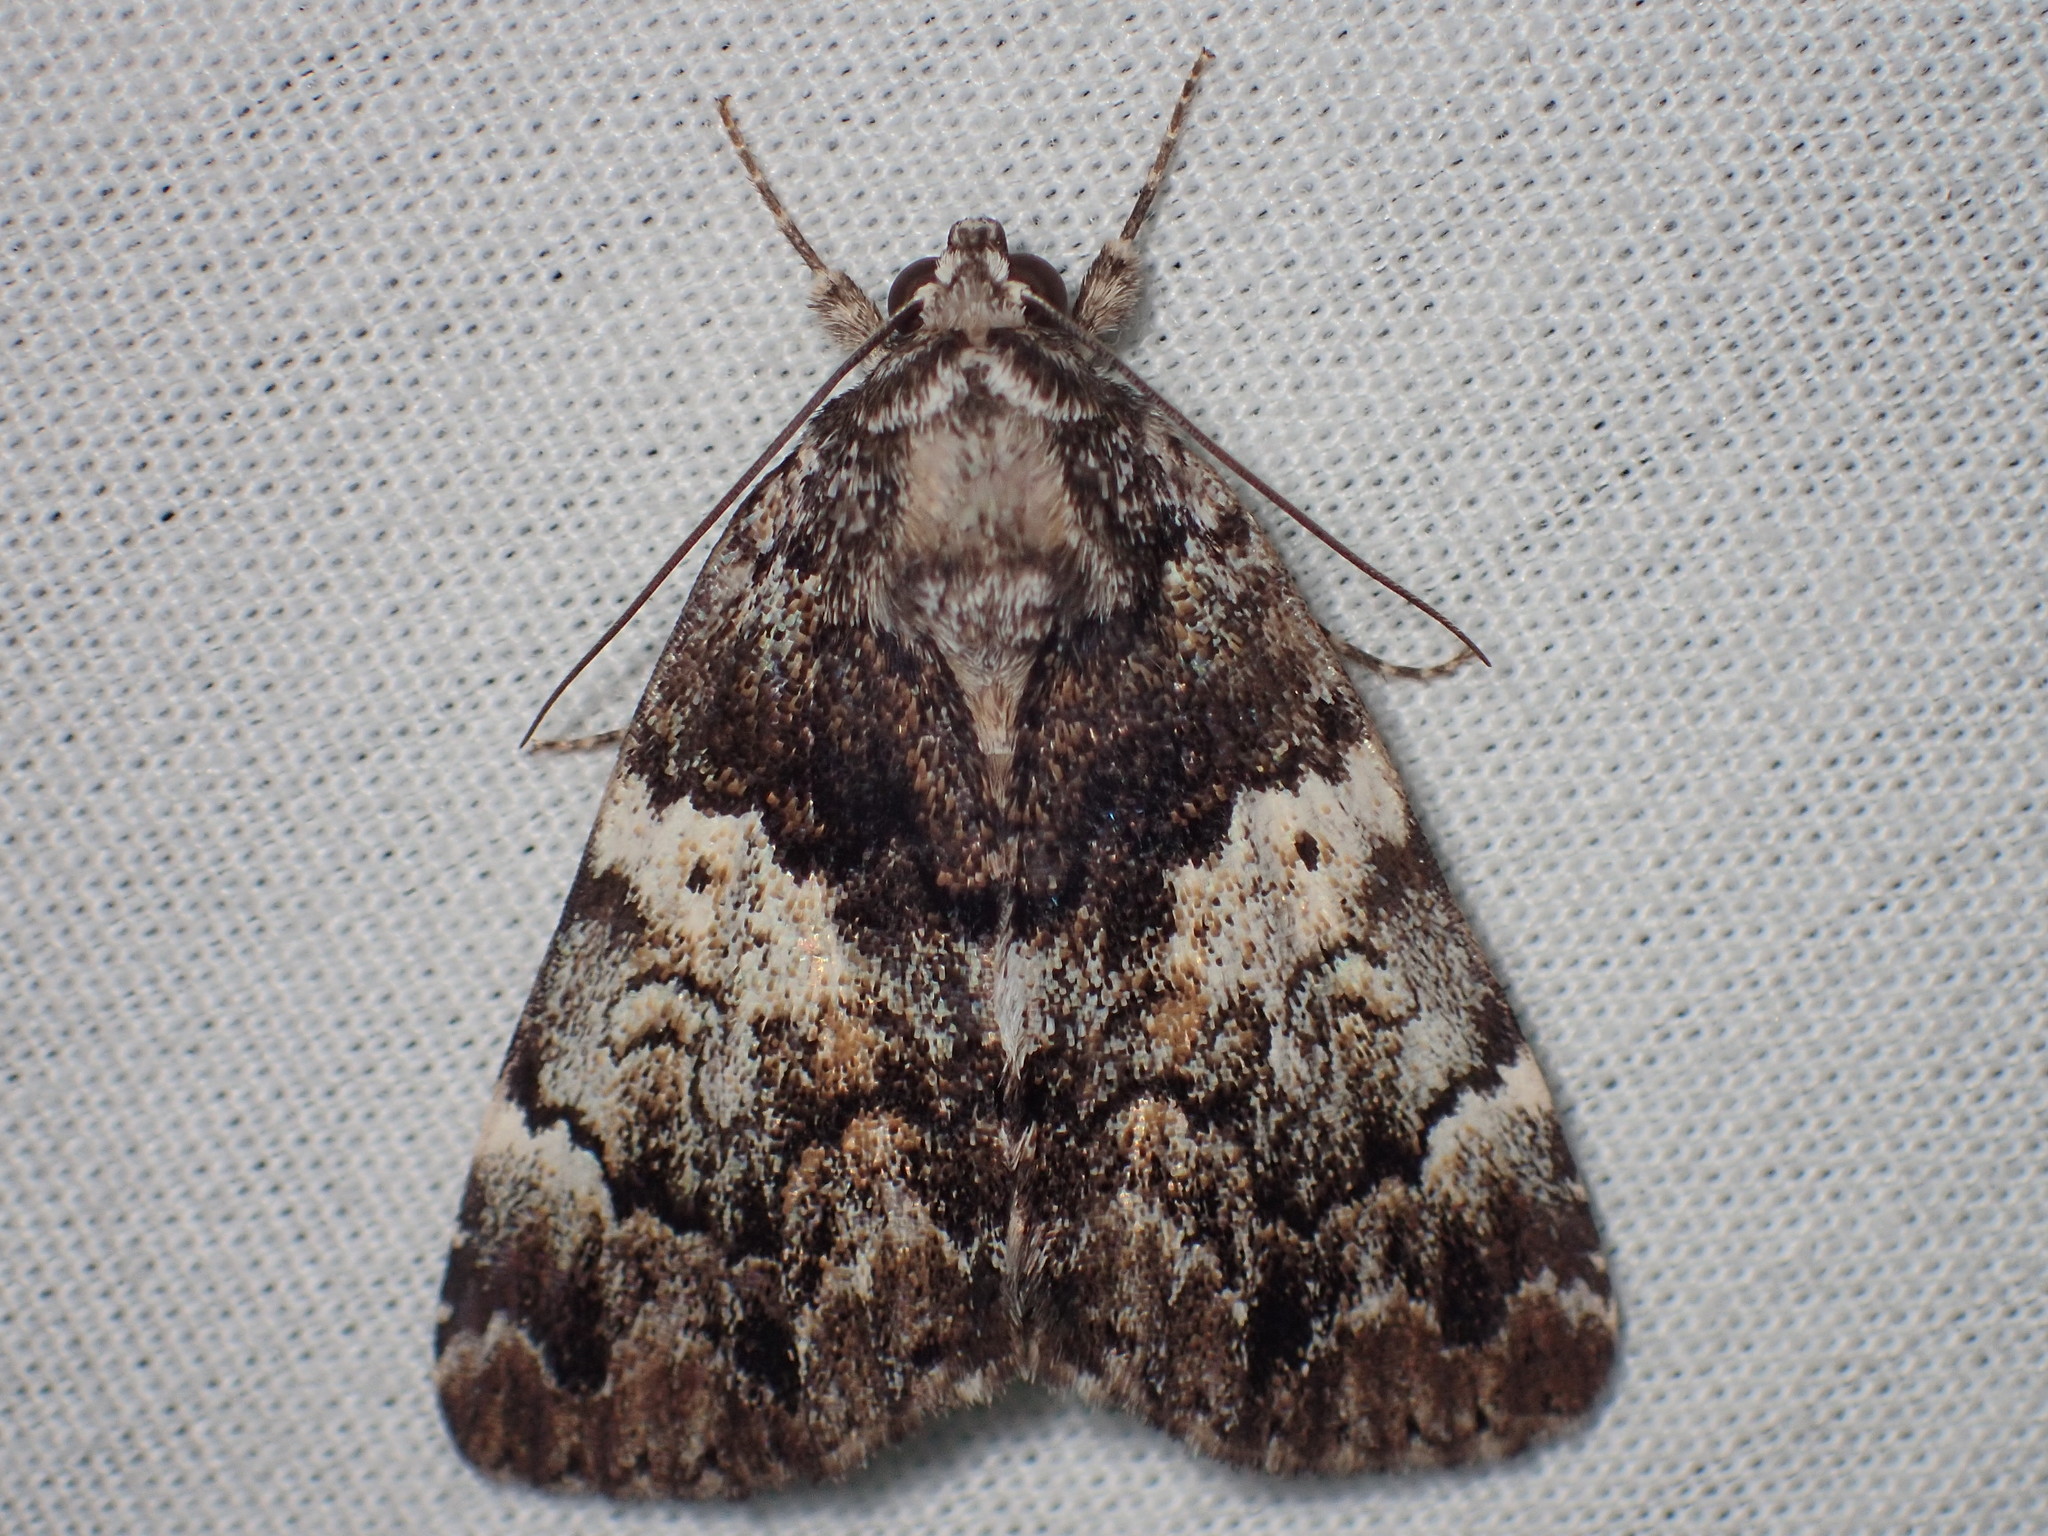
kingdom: Animalia
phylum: Arthropoda
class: Insecta
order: Lepidoptera
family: Erebidae
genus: Allotria
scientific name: Allotria elonympha
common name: False underwing
